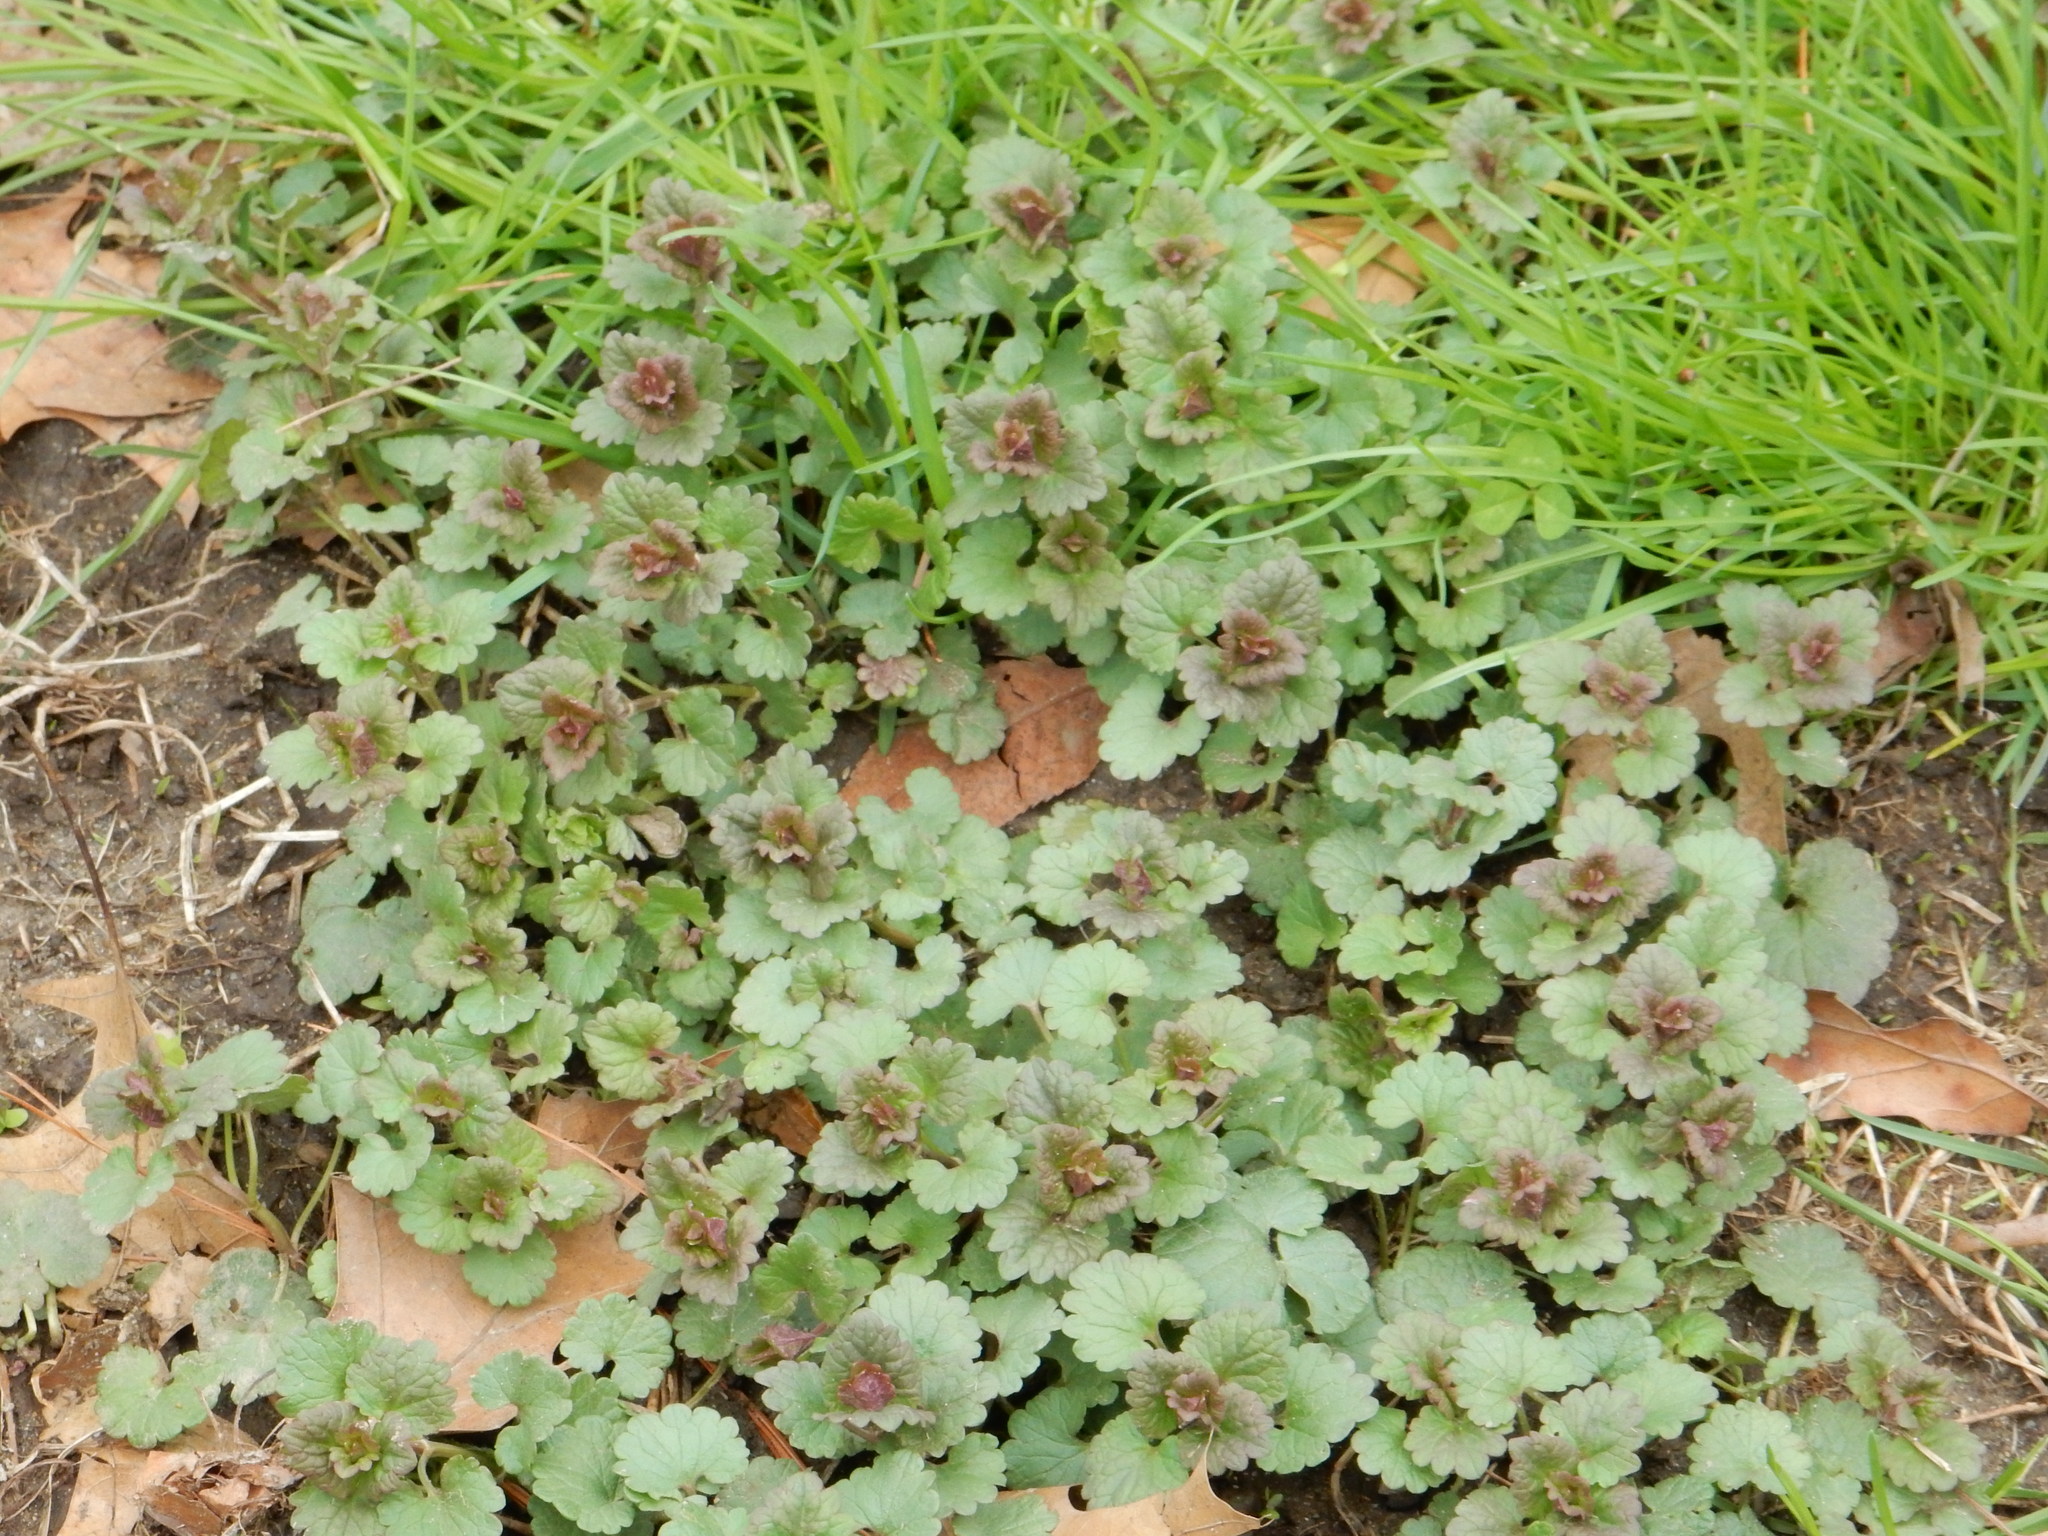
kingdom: Plantae
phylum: Tracheophyta
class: Magnoliopsida
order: Lamiales
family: Lamiaceae
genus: Glechoma
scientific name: Glechoma hederacea
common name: Ground ivy
